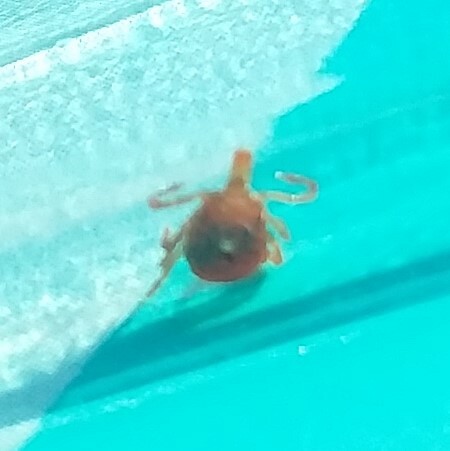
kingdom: Animalia
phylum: Arthropoda
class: Arachnida
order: Ixodida
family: Ixodidae
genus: Amblyomma
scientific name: Amblyomma americanum
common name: Lone star tick
